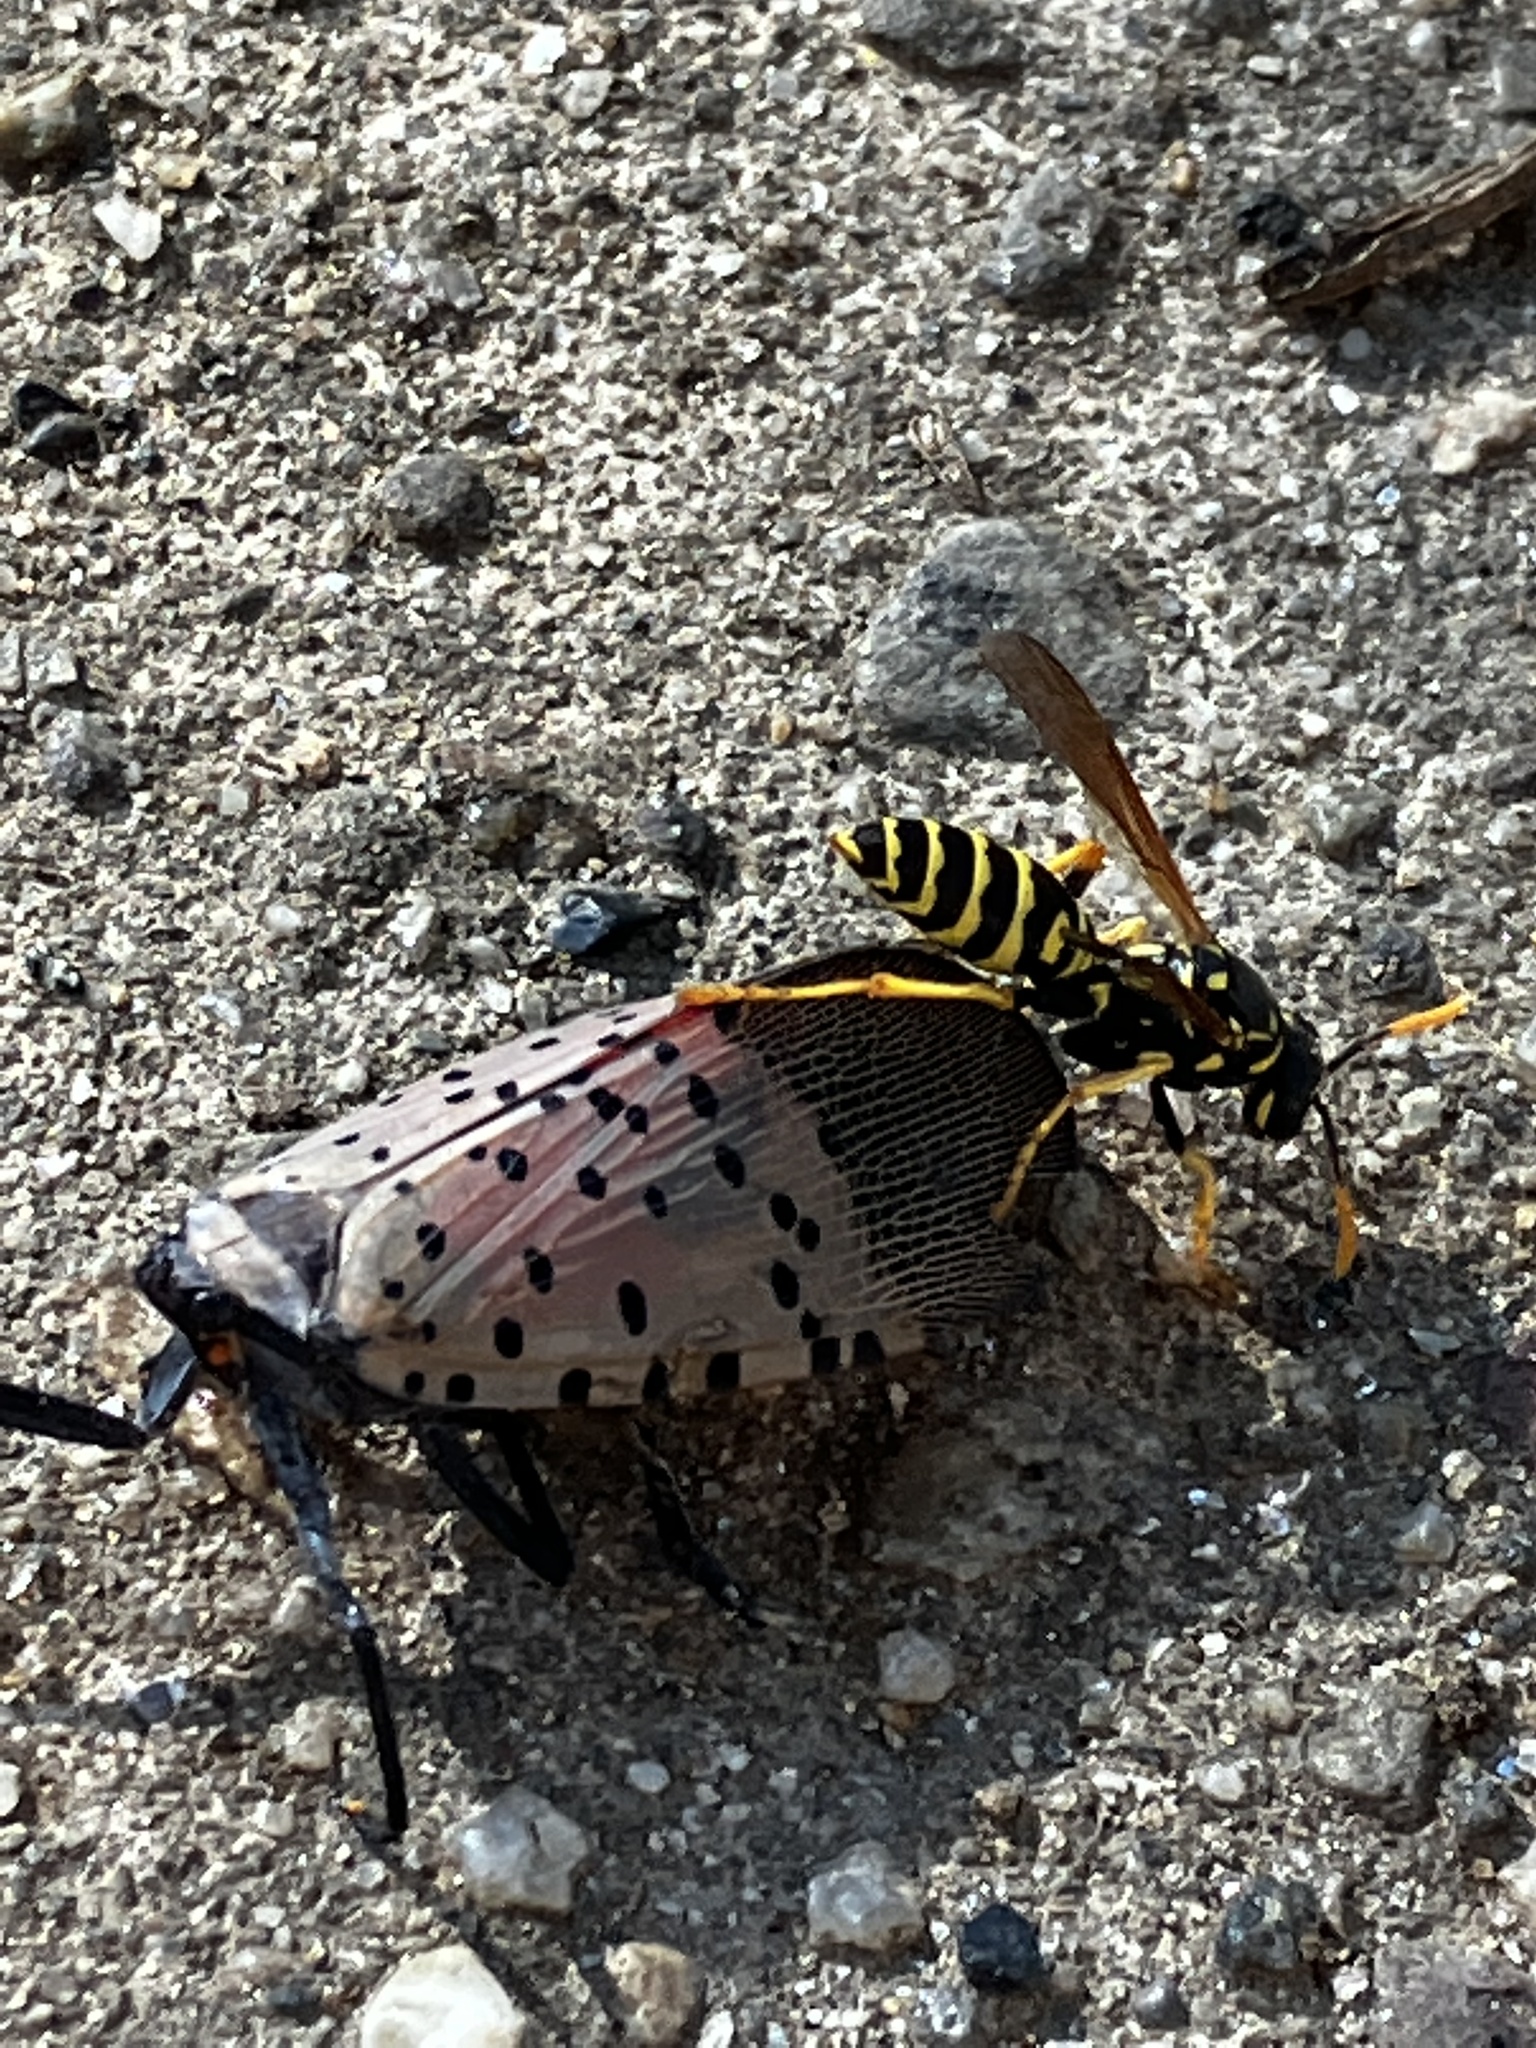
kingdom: Animalia
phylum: Arthropoda
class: Insecta
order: Hymenoptera
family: Eumenidae
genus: Polistes
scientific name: Polistes dominula
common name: Paper wasp
